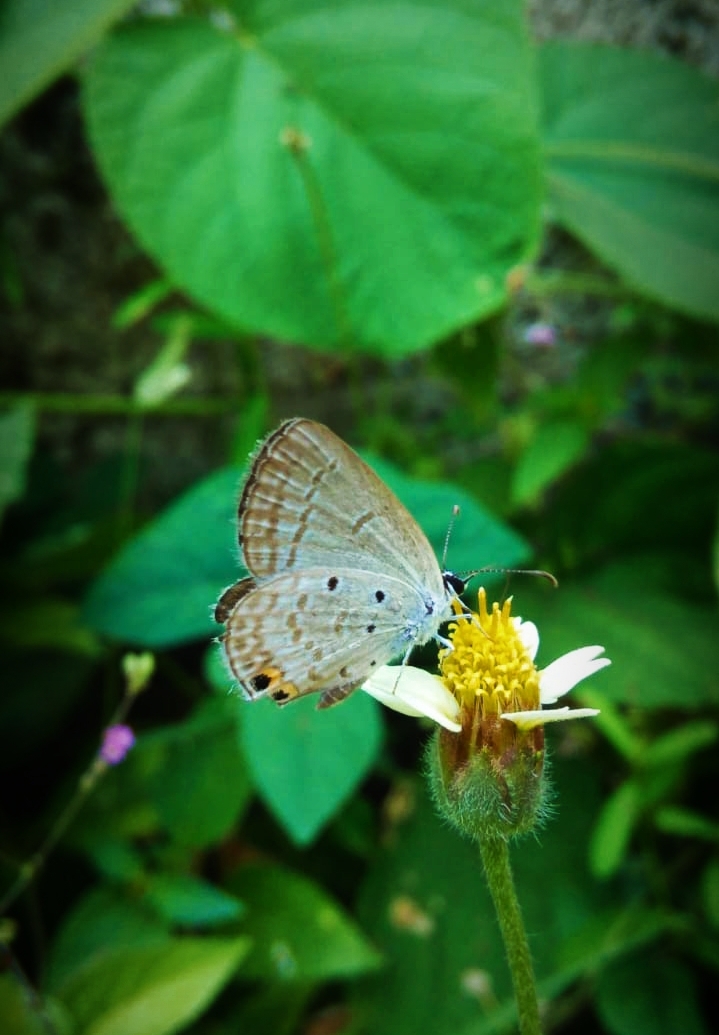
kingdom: Animalia
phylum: Arthropoda
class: Insecta
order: Lepidoptera
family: Lycaenidae
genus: Euchrysops
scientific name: Euchrysops cnejus
